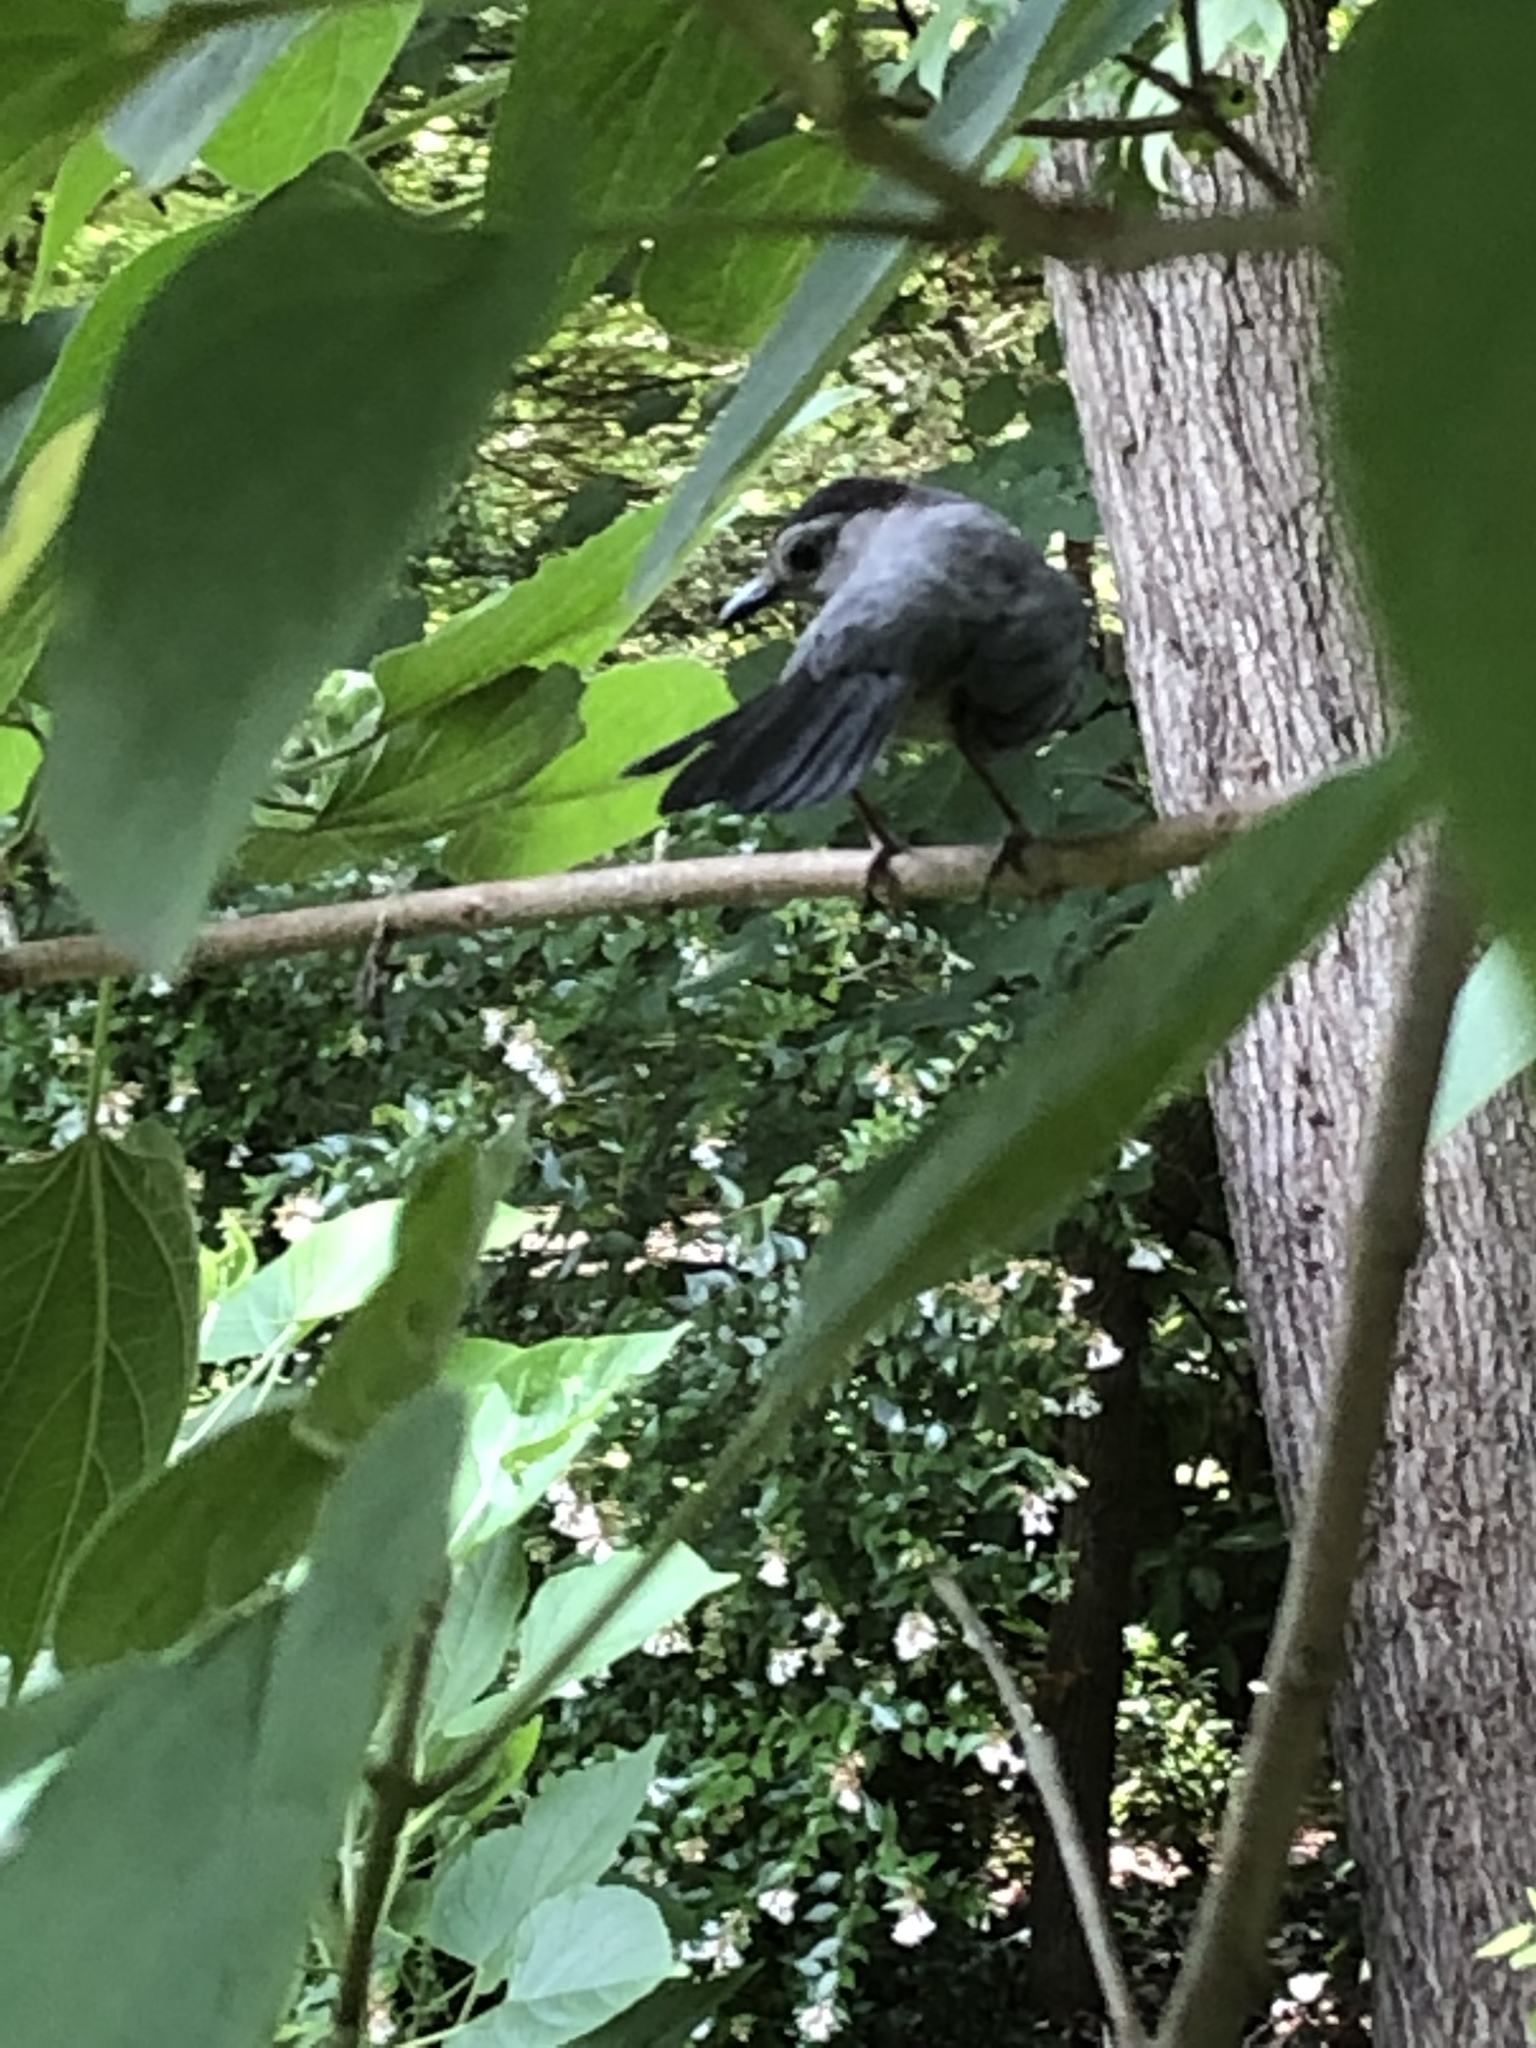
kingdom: Animalia
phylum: Chordata
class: Aves
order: Passeriformes
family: Mimidae
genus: Dumetella
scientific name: Dumetella carolinensis
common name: Gray catbird
